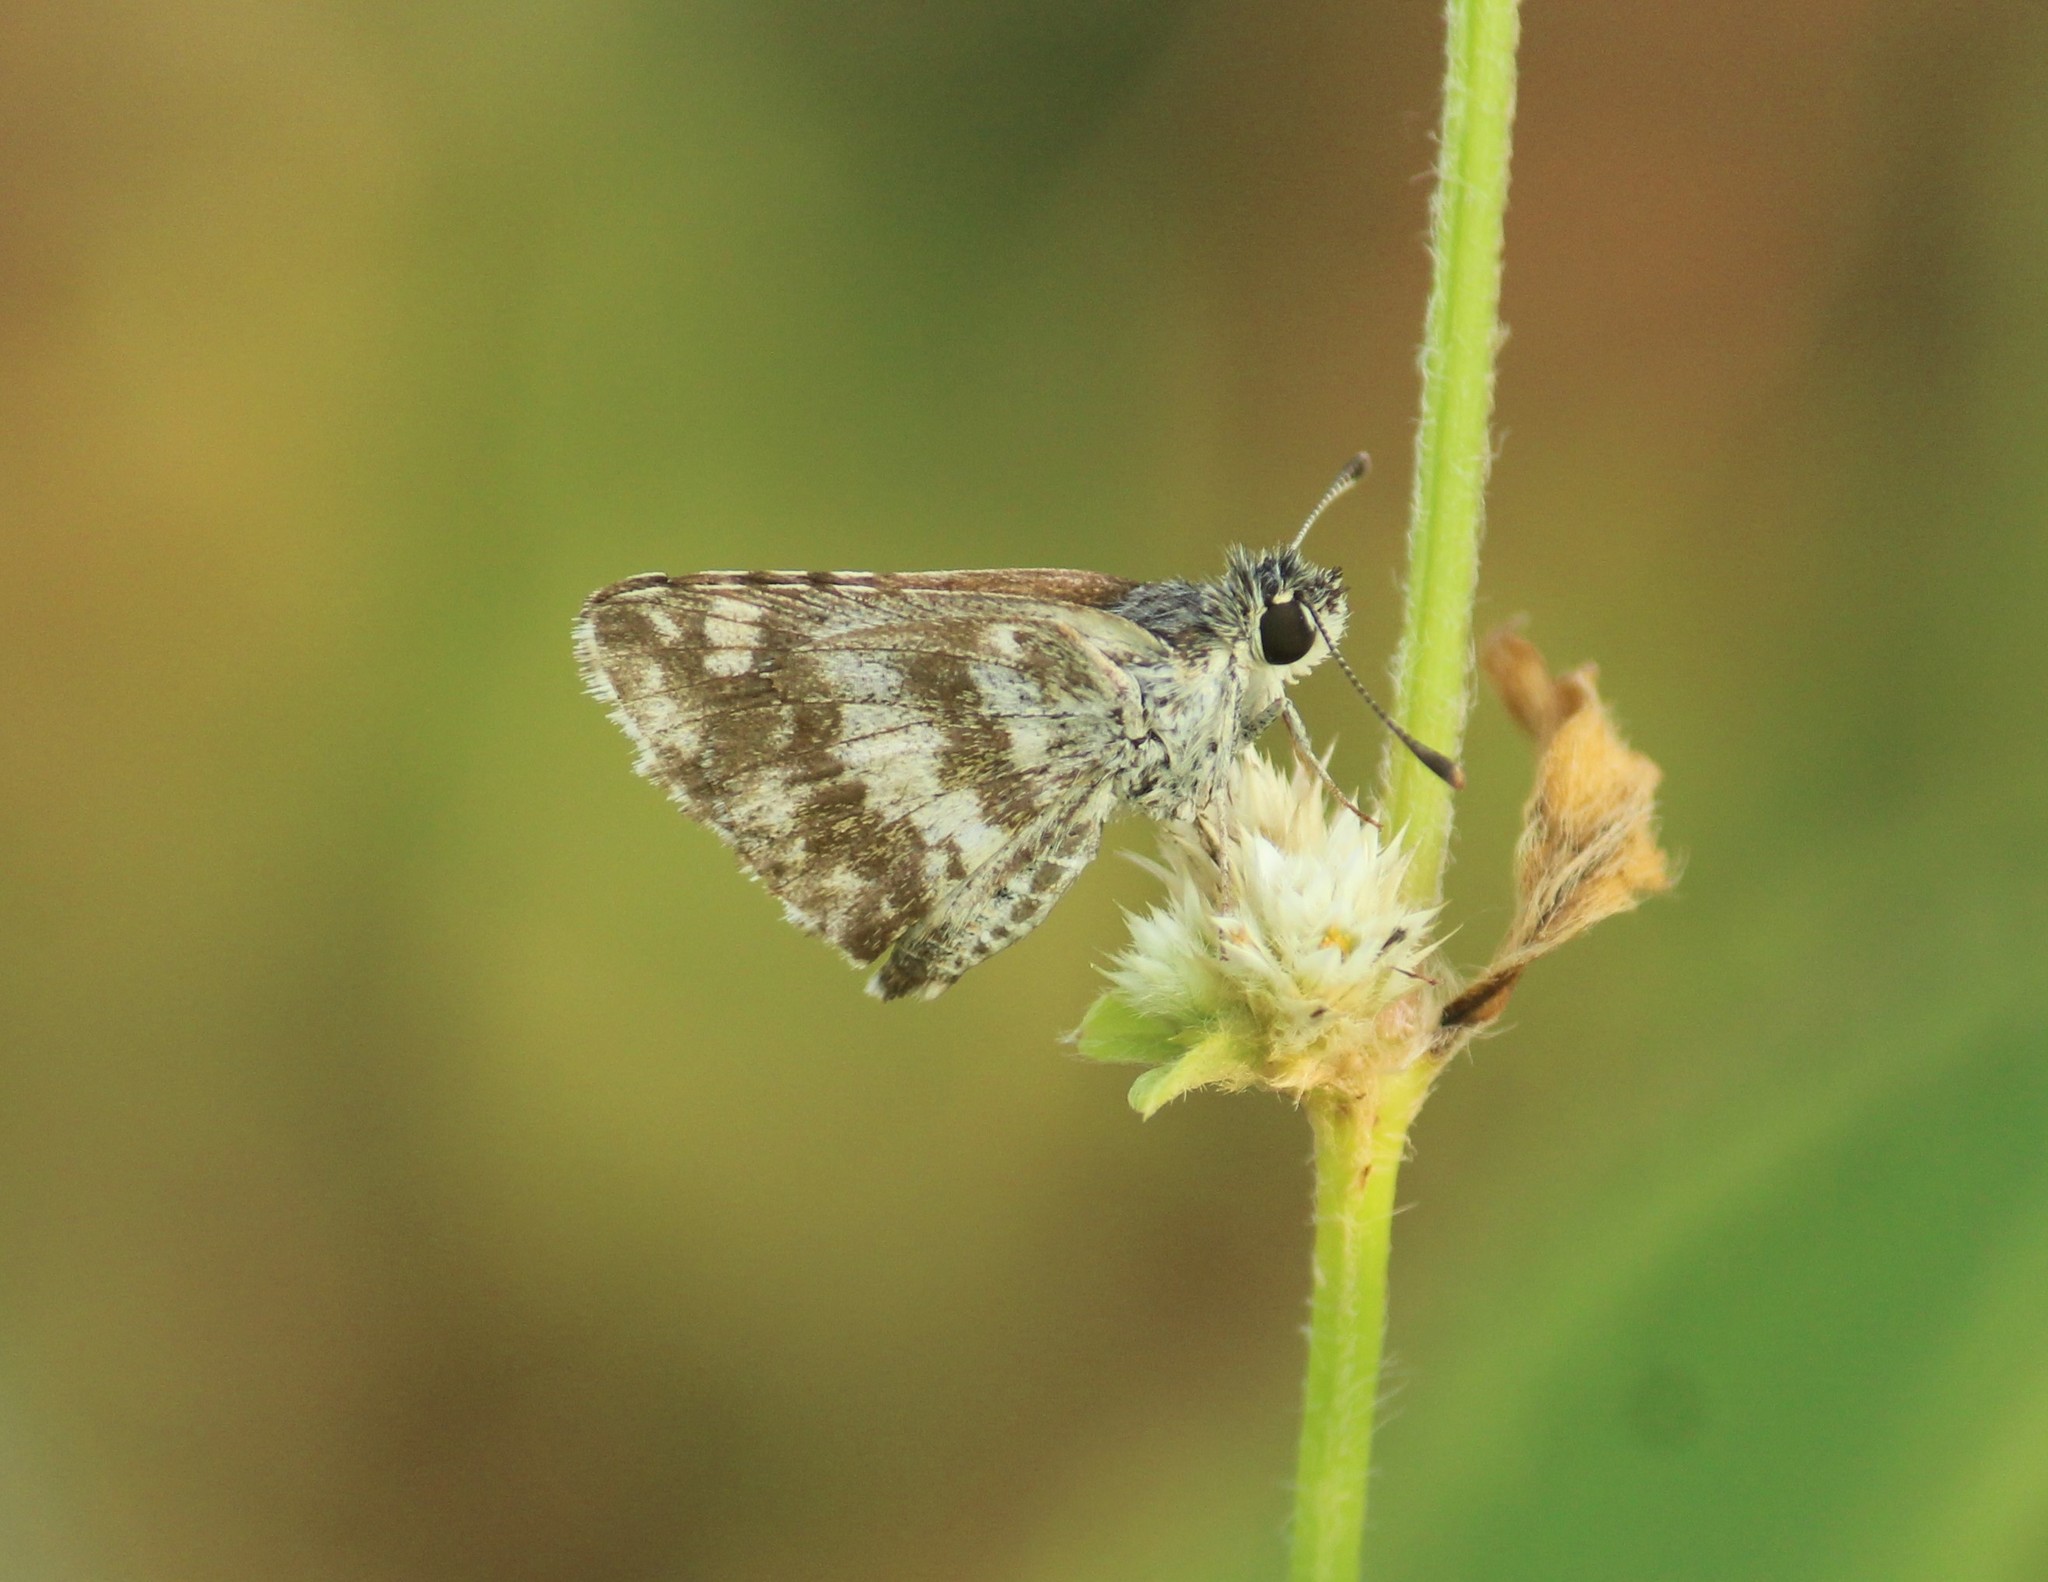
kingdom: Animalia
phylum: Arthropoda
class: Insecta
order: Lepidoptera
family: Hesperiidae
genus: Spialia
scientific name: Spialia galba
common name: Indian skipper
